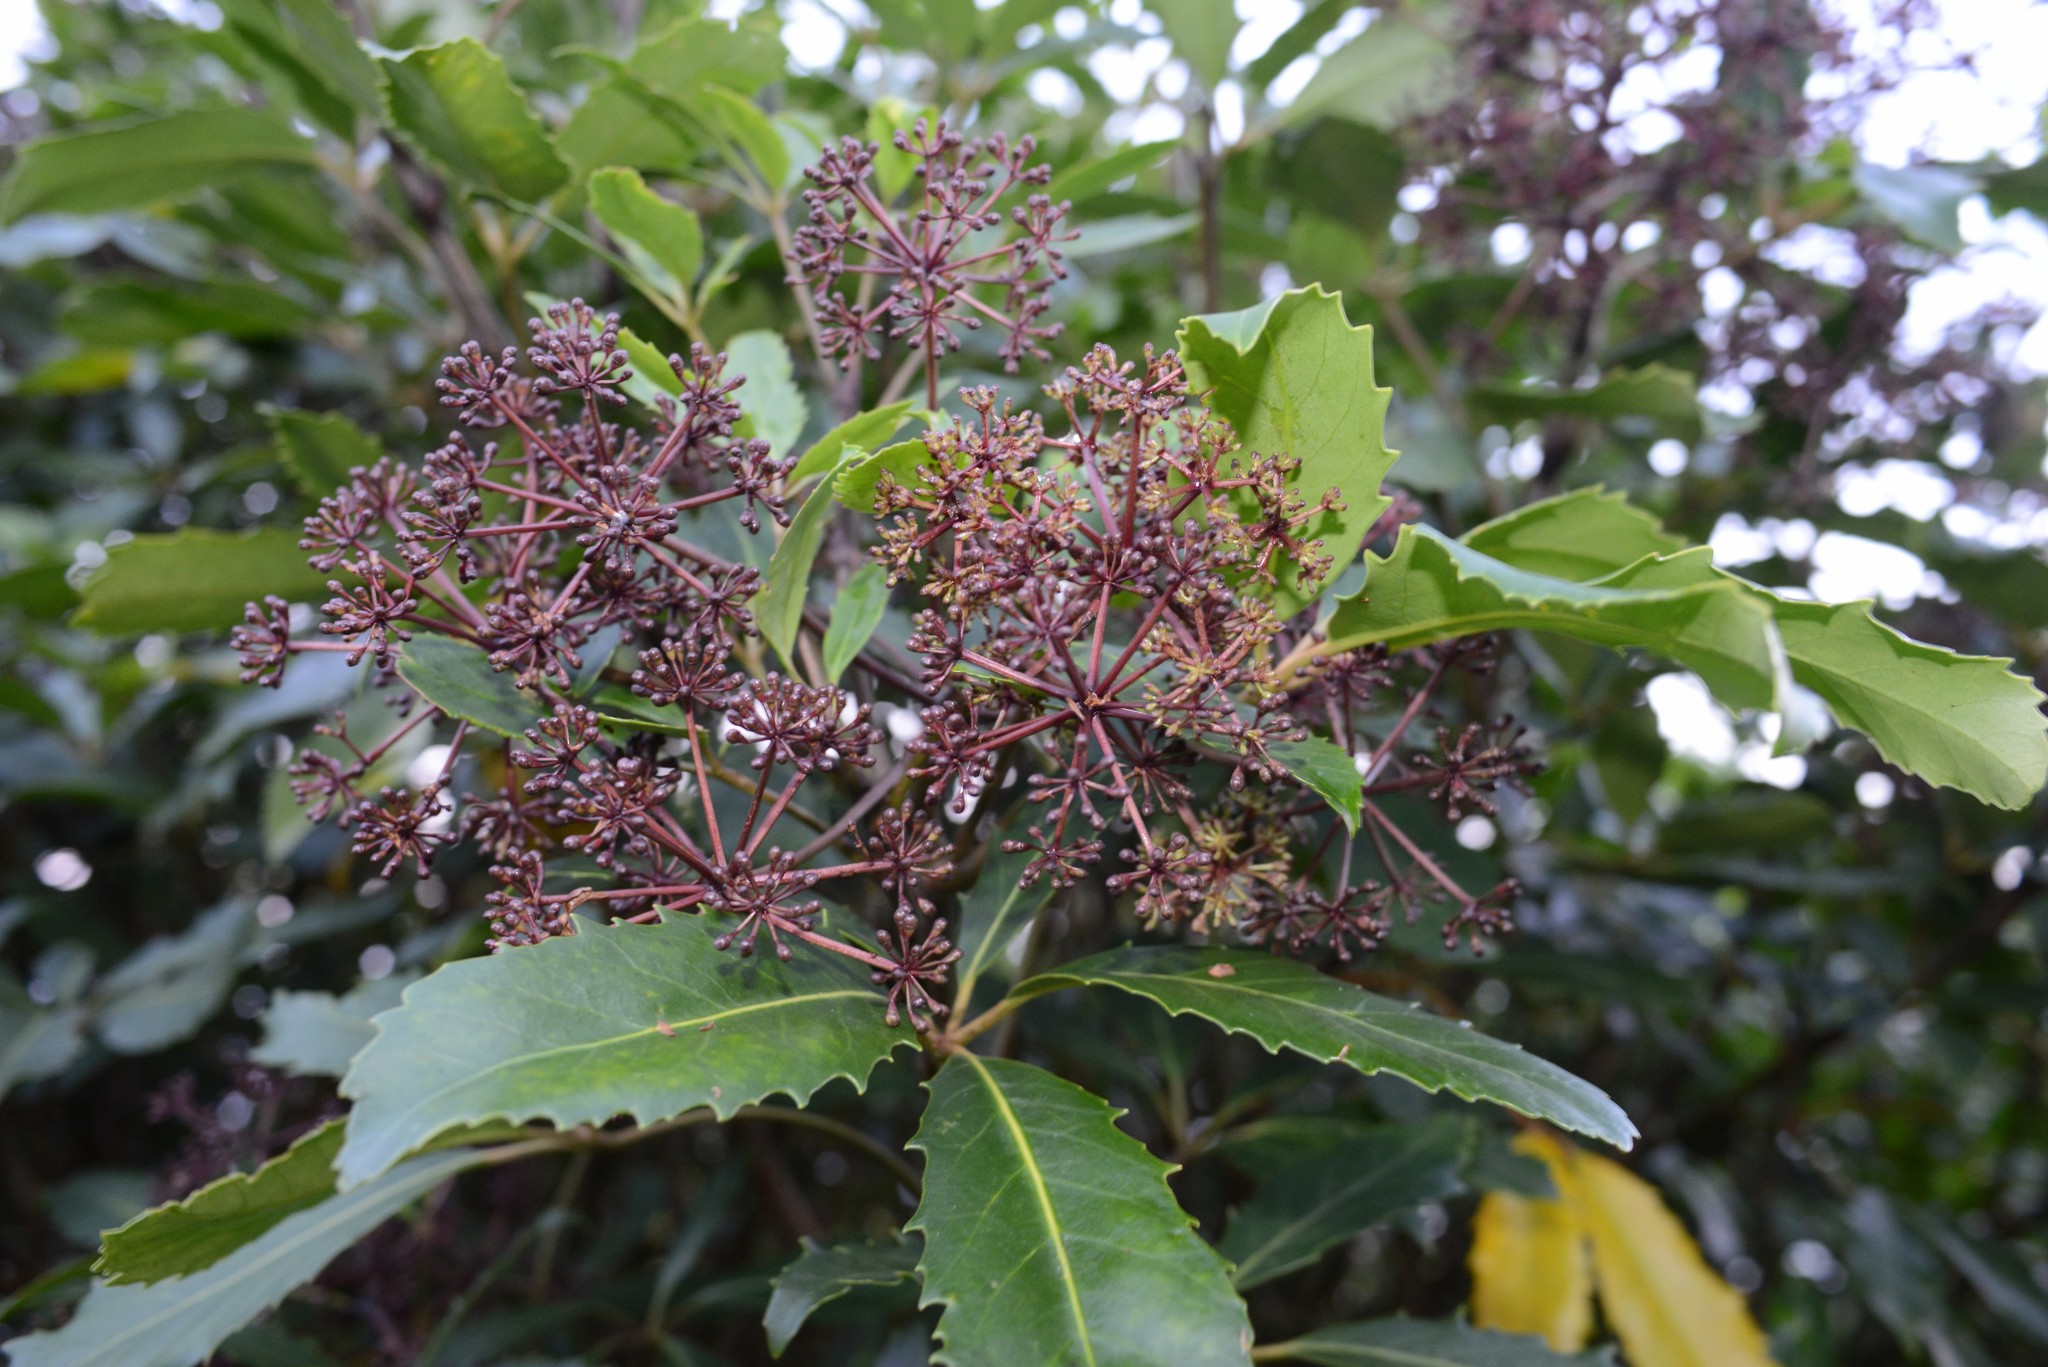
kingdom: Plantae
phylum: Tracheophyta
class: Magnoliopsida
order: Apiales
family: Araliaceae
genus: Neopanax
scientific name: Neopanax arboreus
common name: Five-fingers
